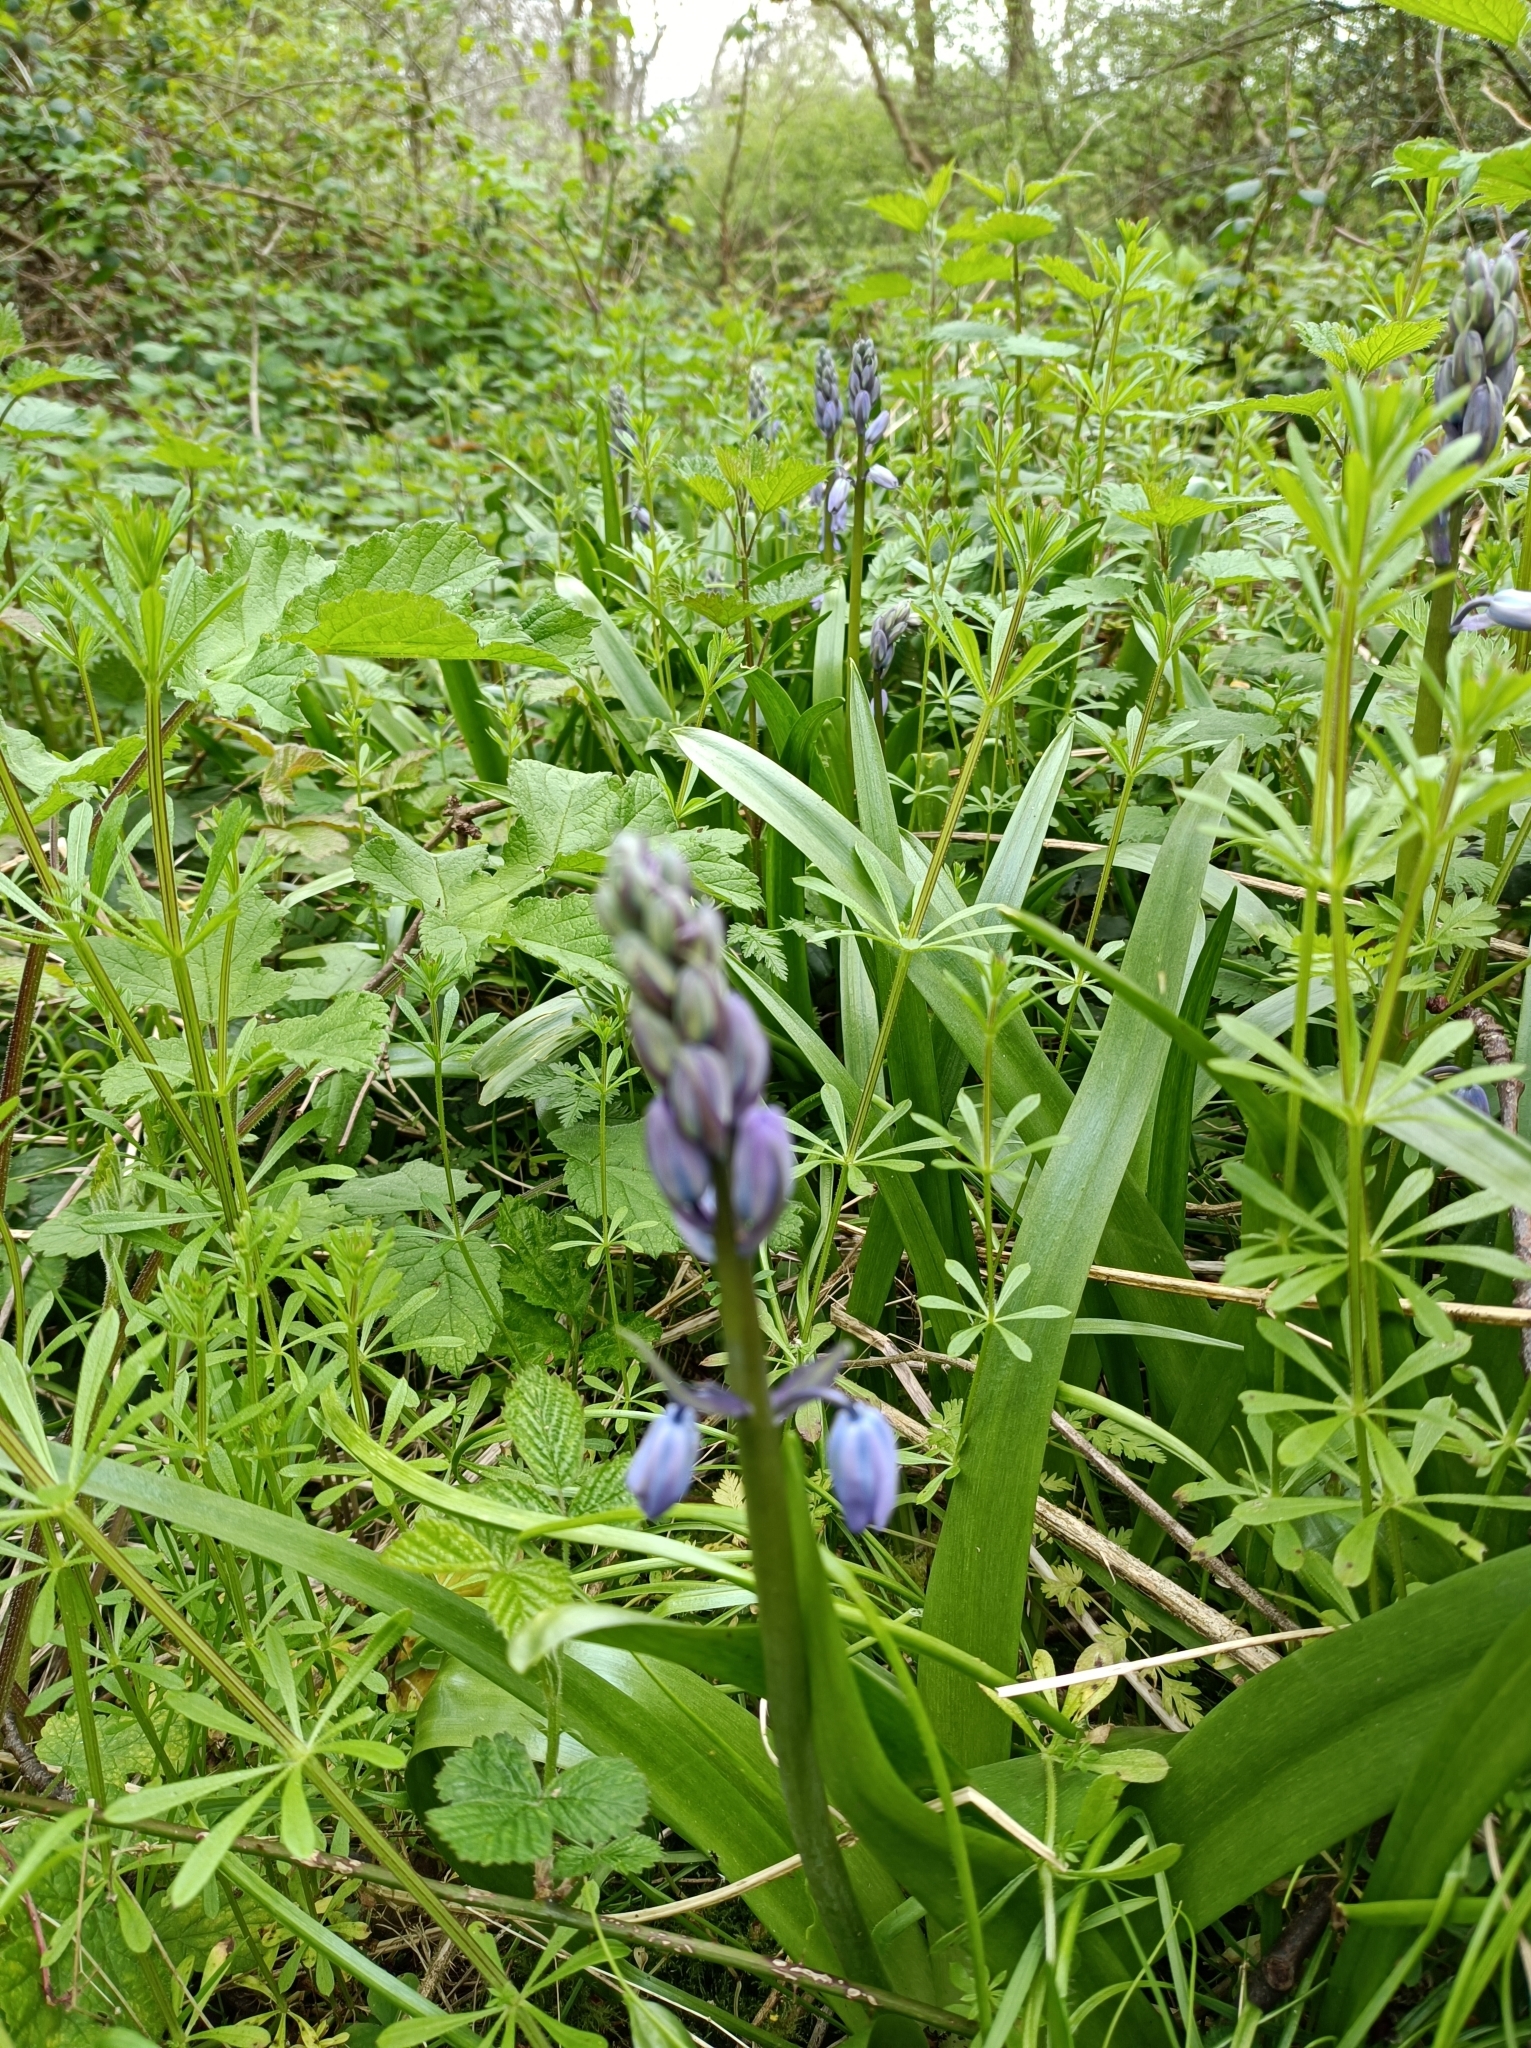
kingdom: Plantae
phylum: Tracheophyta
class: Liliopsida
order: Asparagales
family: Asparagaceae
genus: Hyacinthoides
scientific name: Hyacinthoides hispanica
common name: Spanish bluebell
